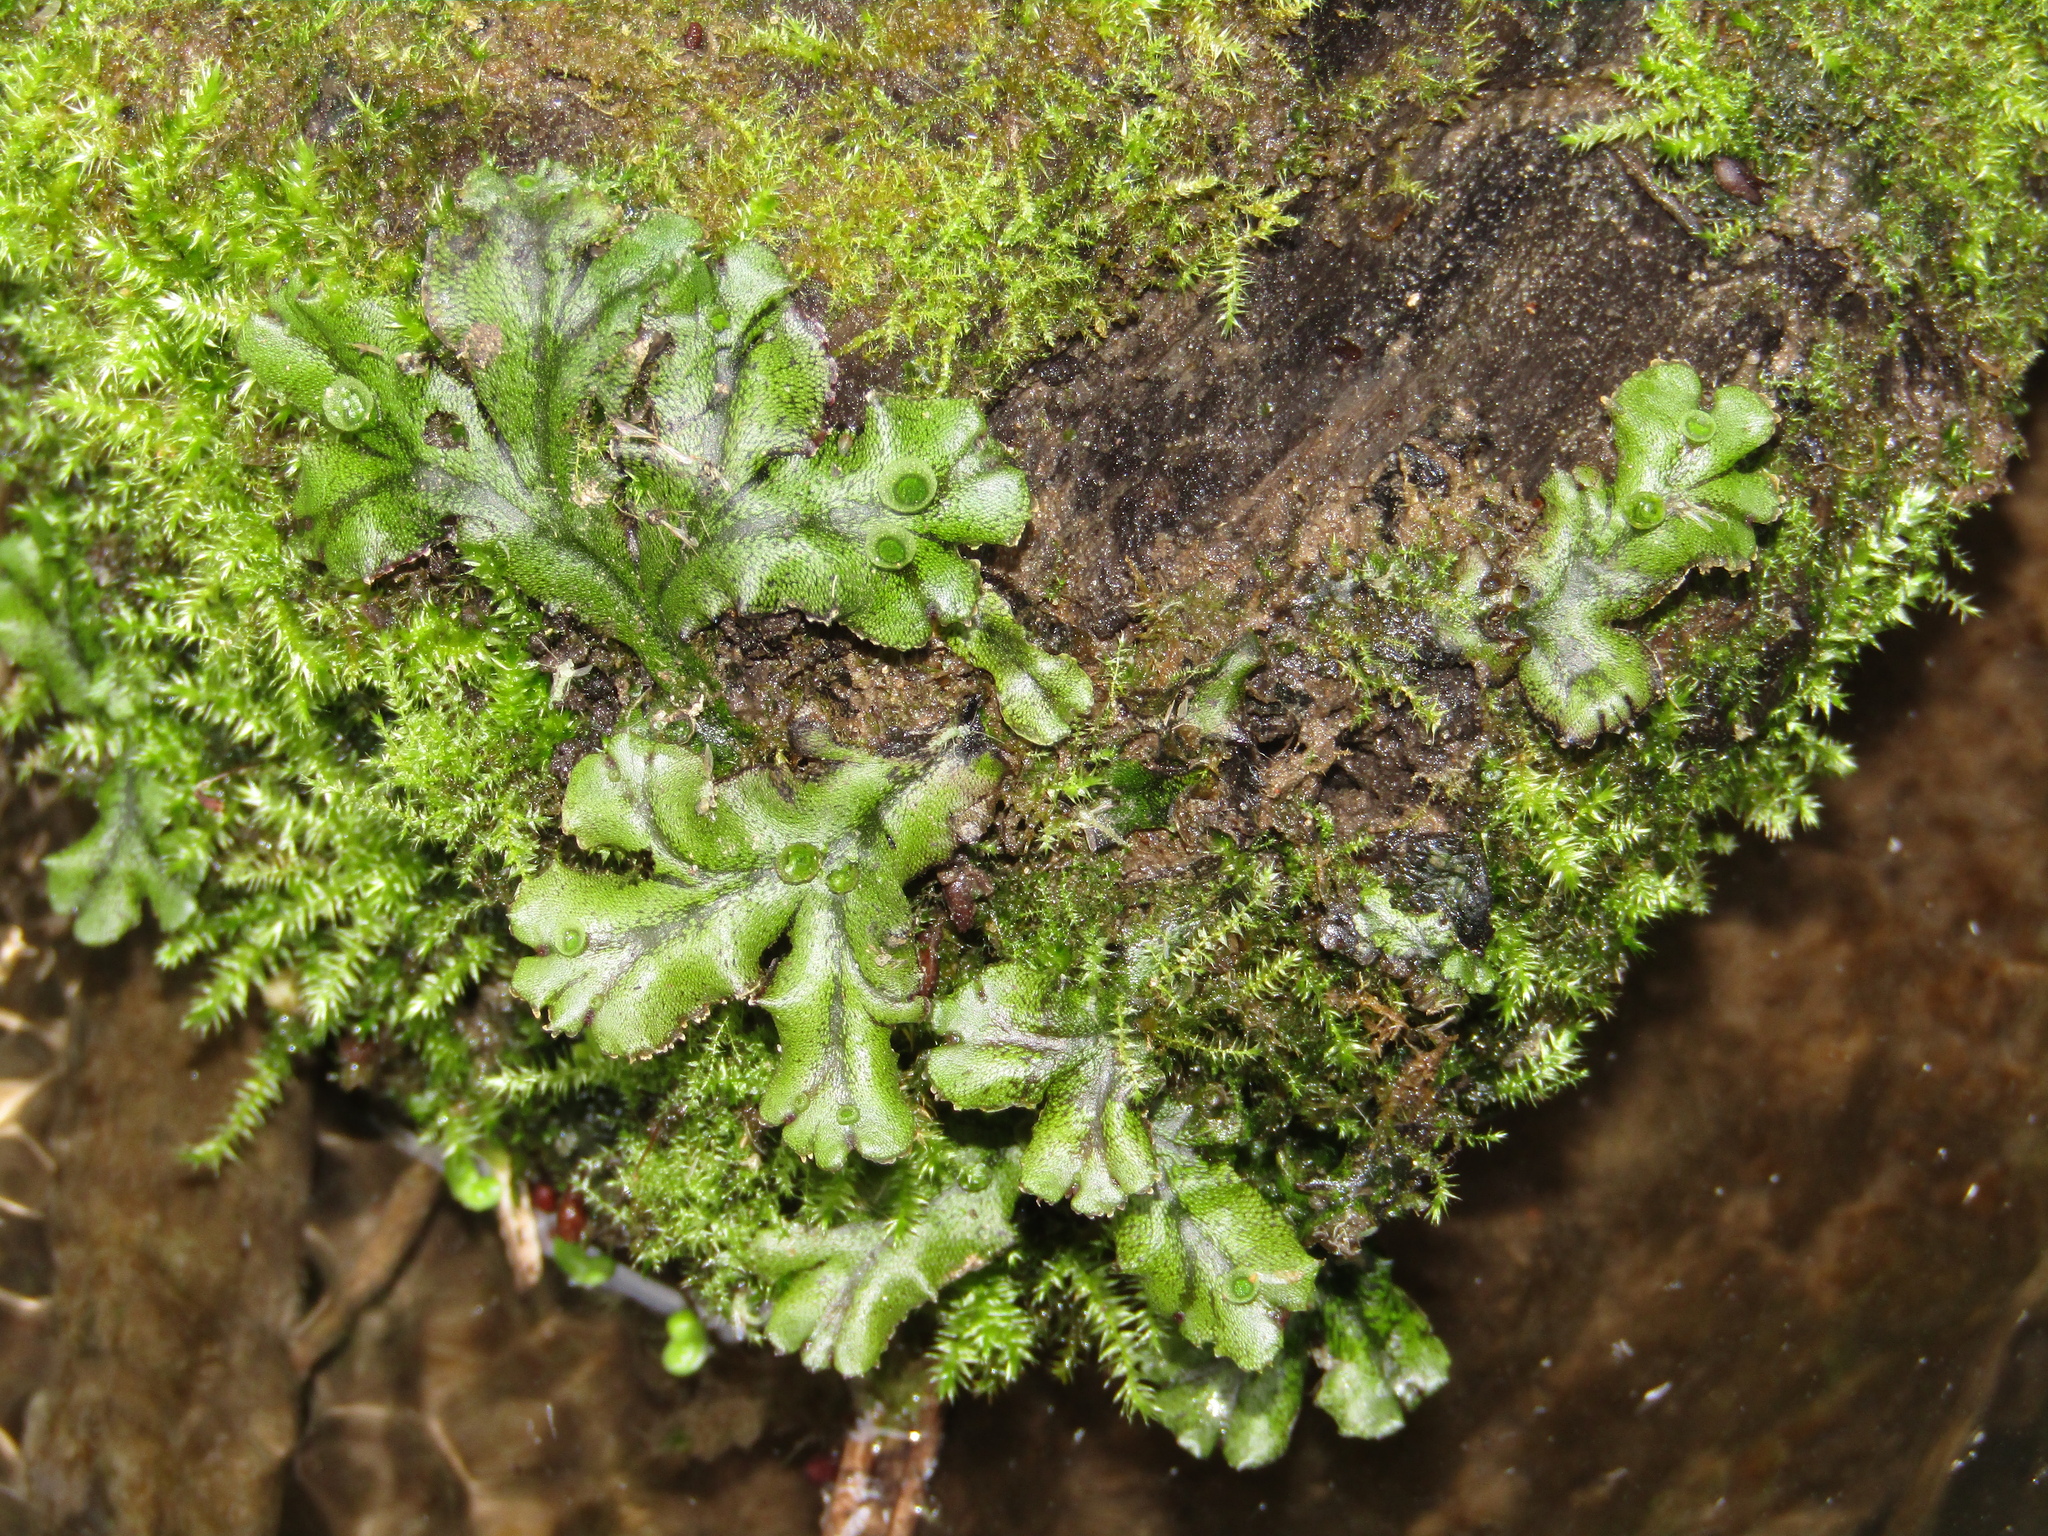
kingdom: Plantae
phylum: Marchantiophyta
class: Marchantiopsida
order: Marchantiales
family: Marchantiaceae
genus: Marchantia
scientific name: Marchantia polymorpha
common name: Common liverwort
